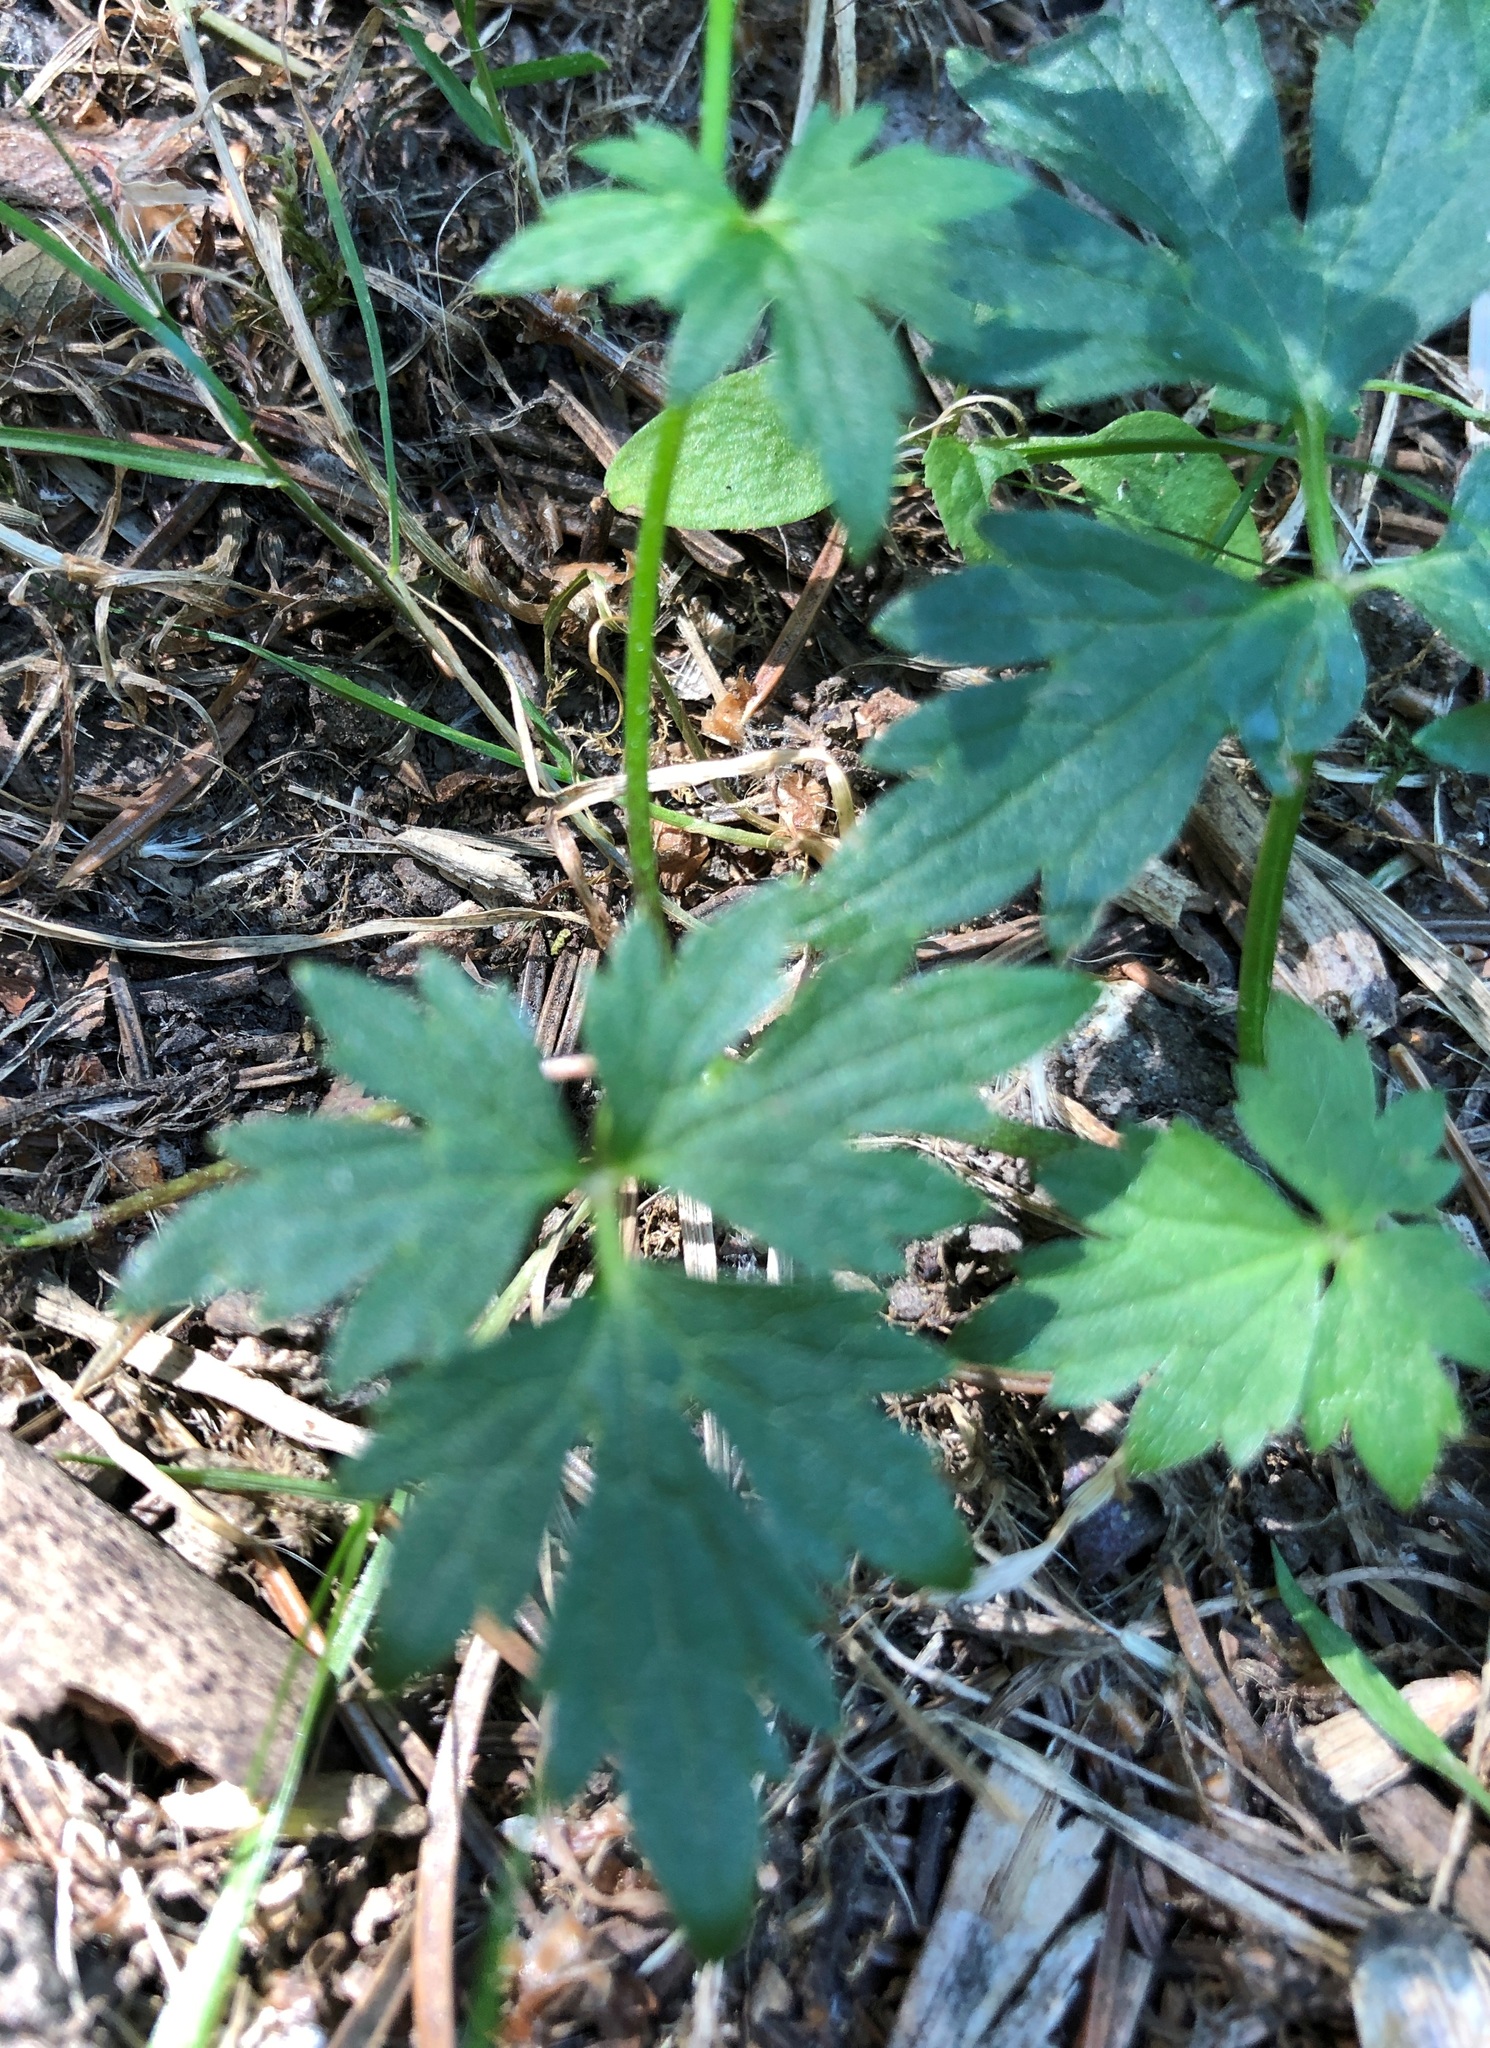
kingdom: Plantae
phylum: Tracheophyta
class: Magnoliopsida
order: Ranunculales
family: Ranunculaceae
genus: Ranunculus
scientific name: Ranunculus repens
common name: Creeping buttercup
